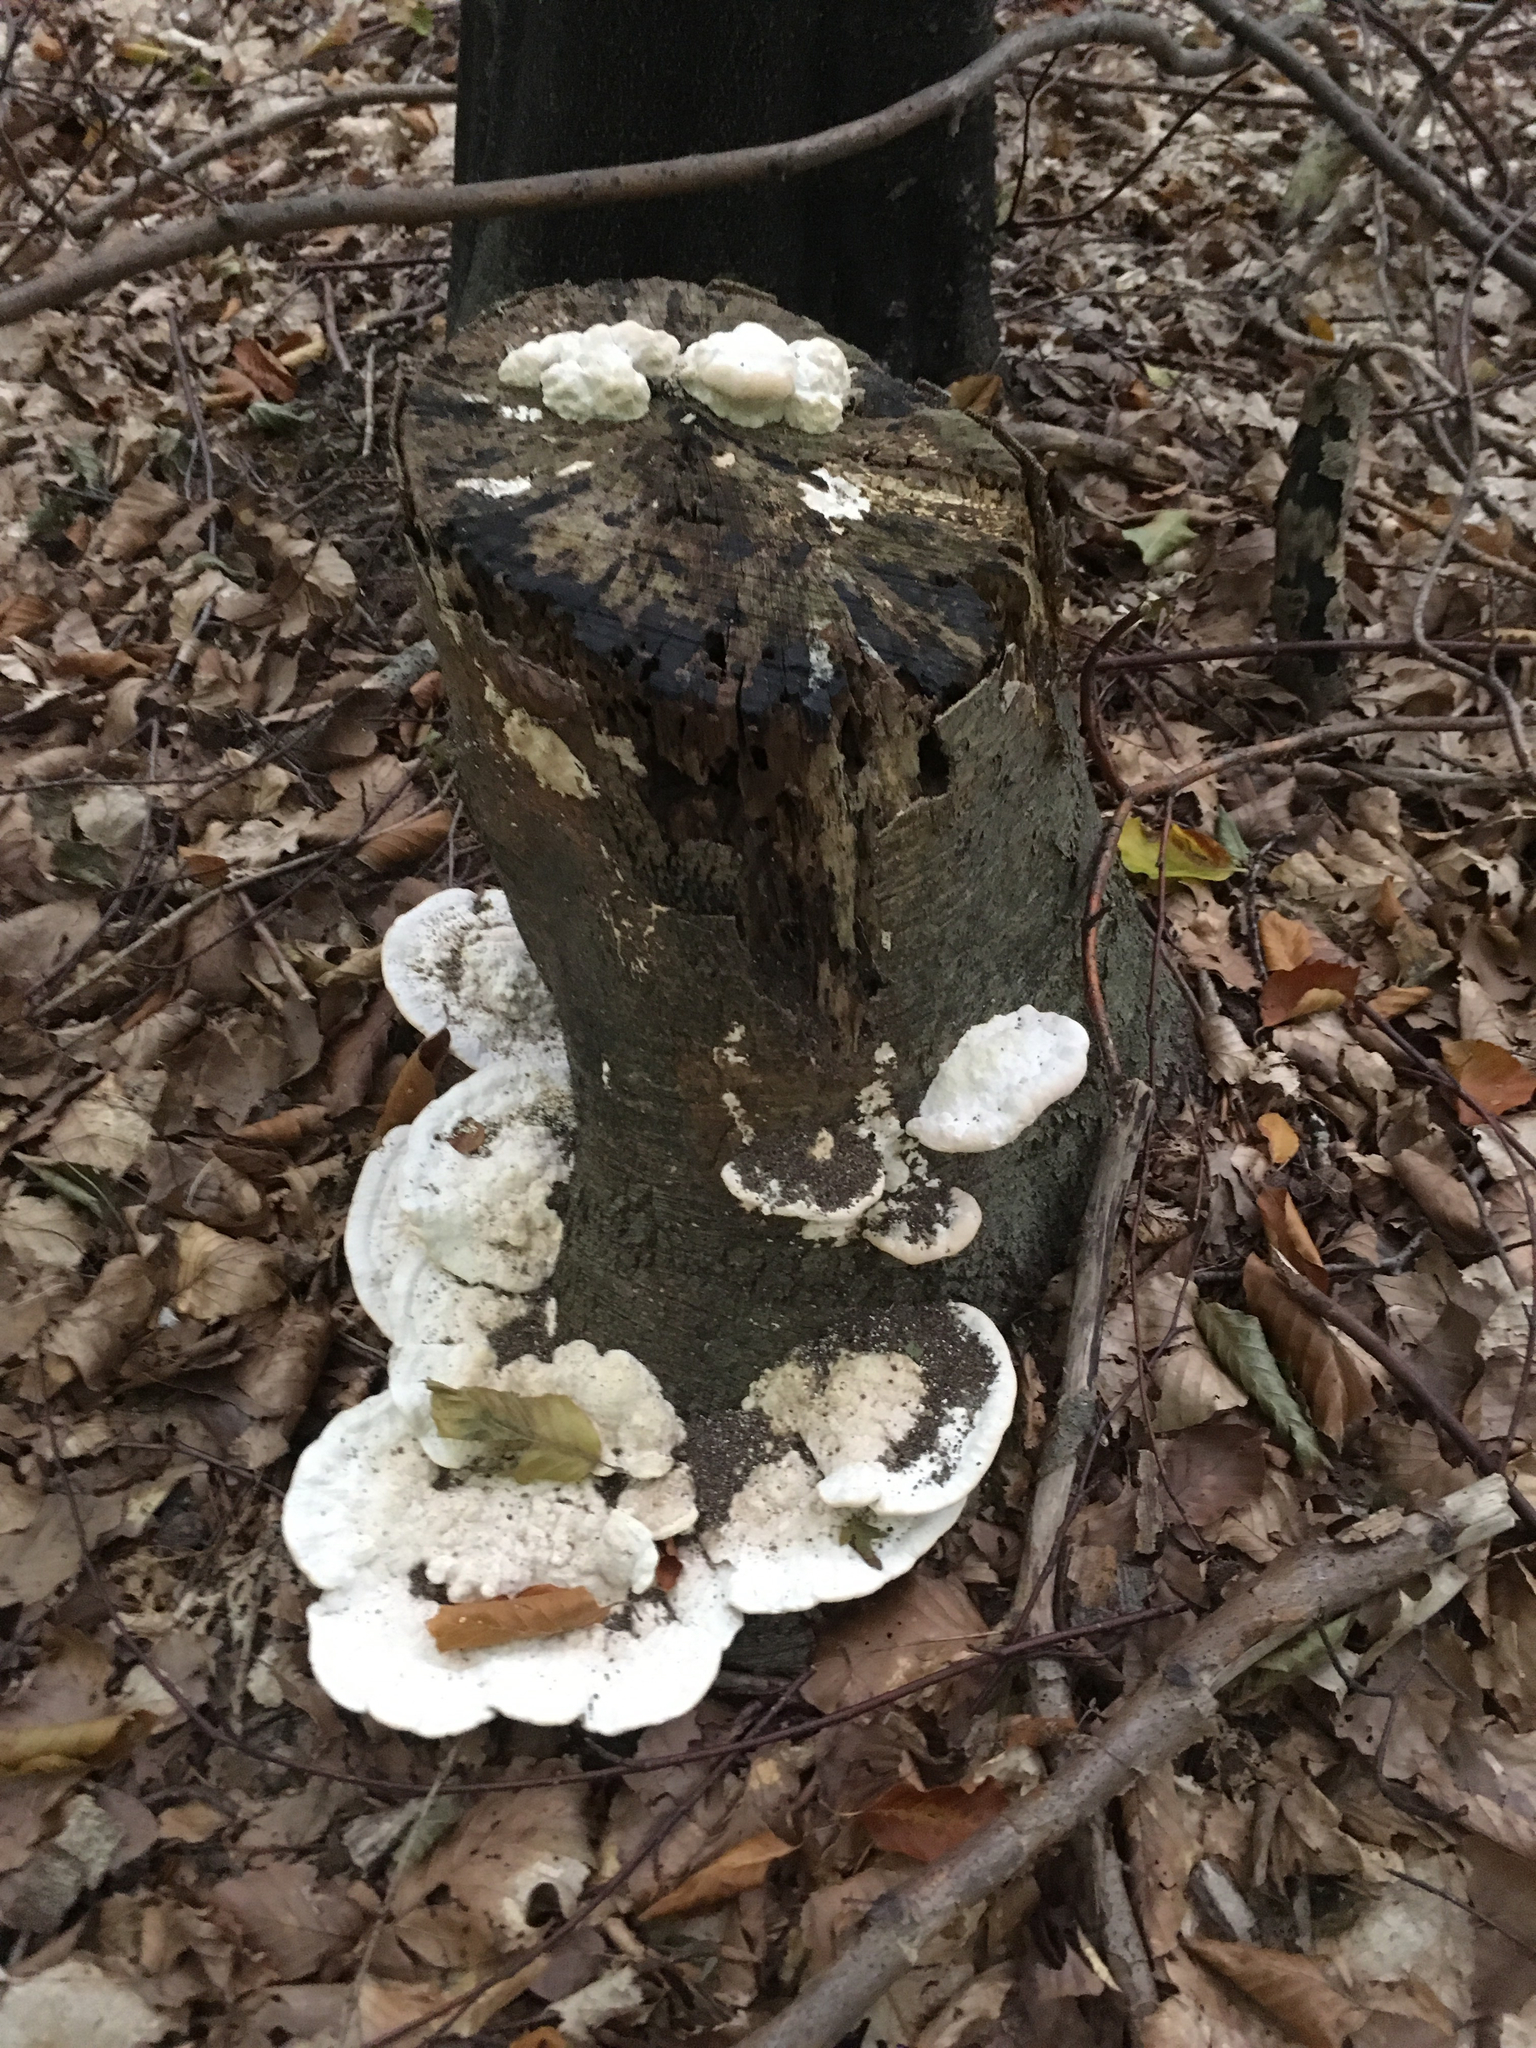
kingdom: Fungi
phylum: Basidiomycota
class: Agaricomycetes
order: Polyporales
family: Polyporaceae
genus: Trametes
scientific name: Trametes gibbosa
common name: Lumpy bracket
